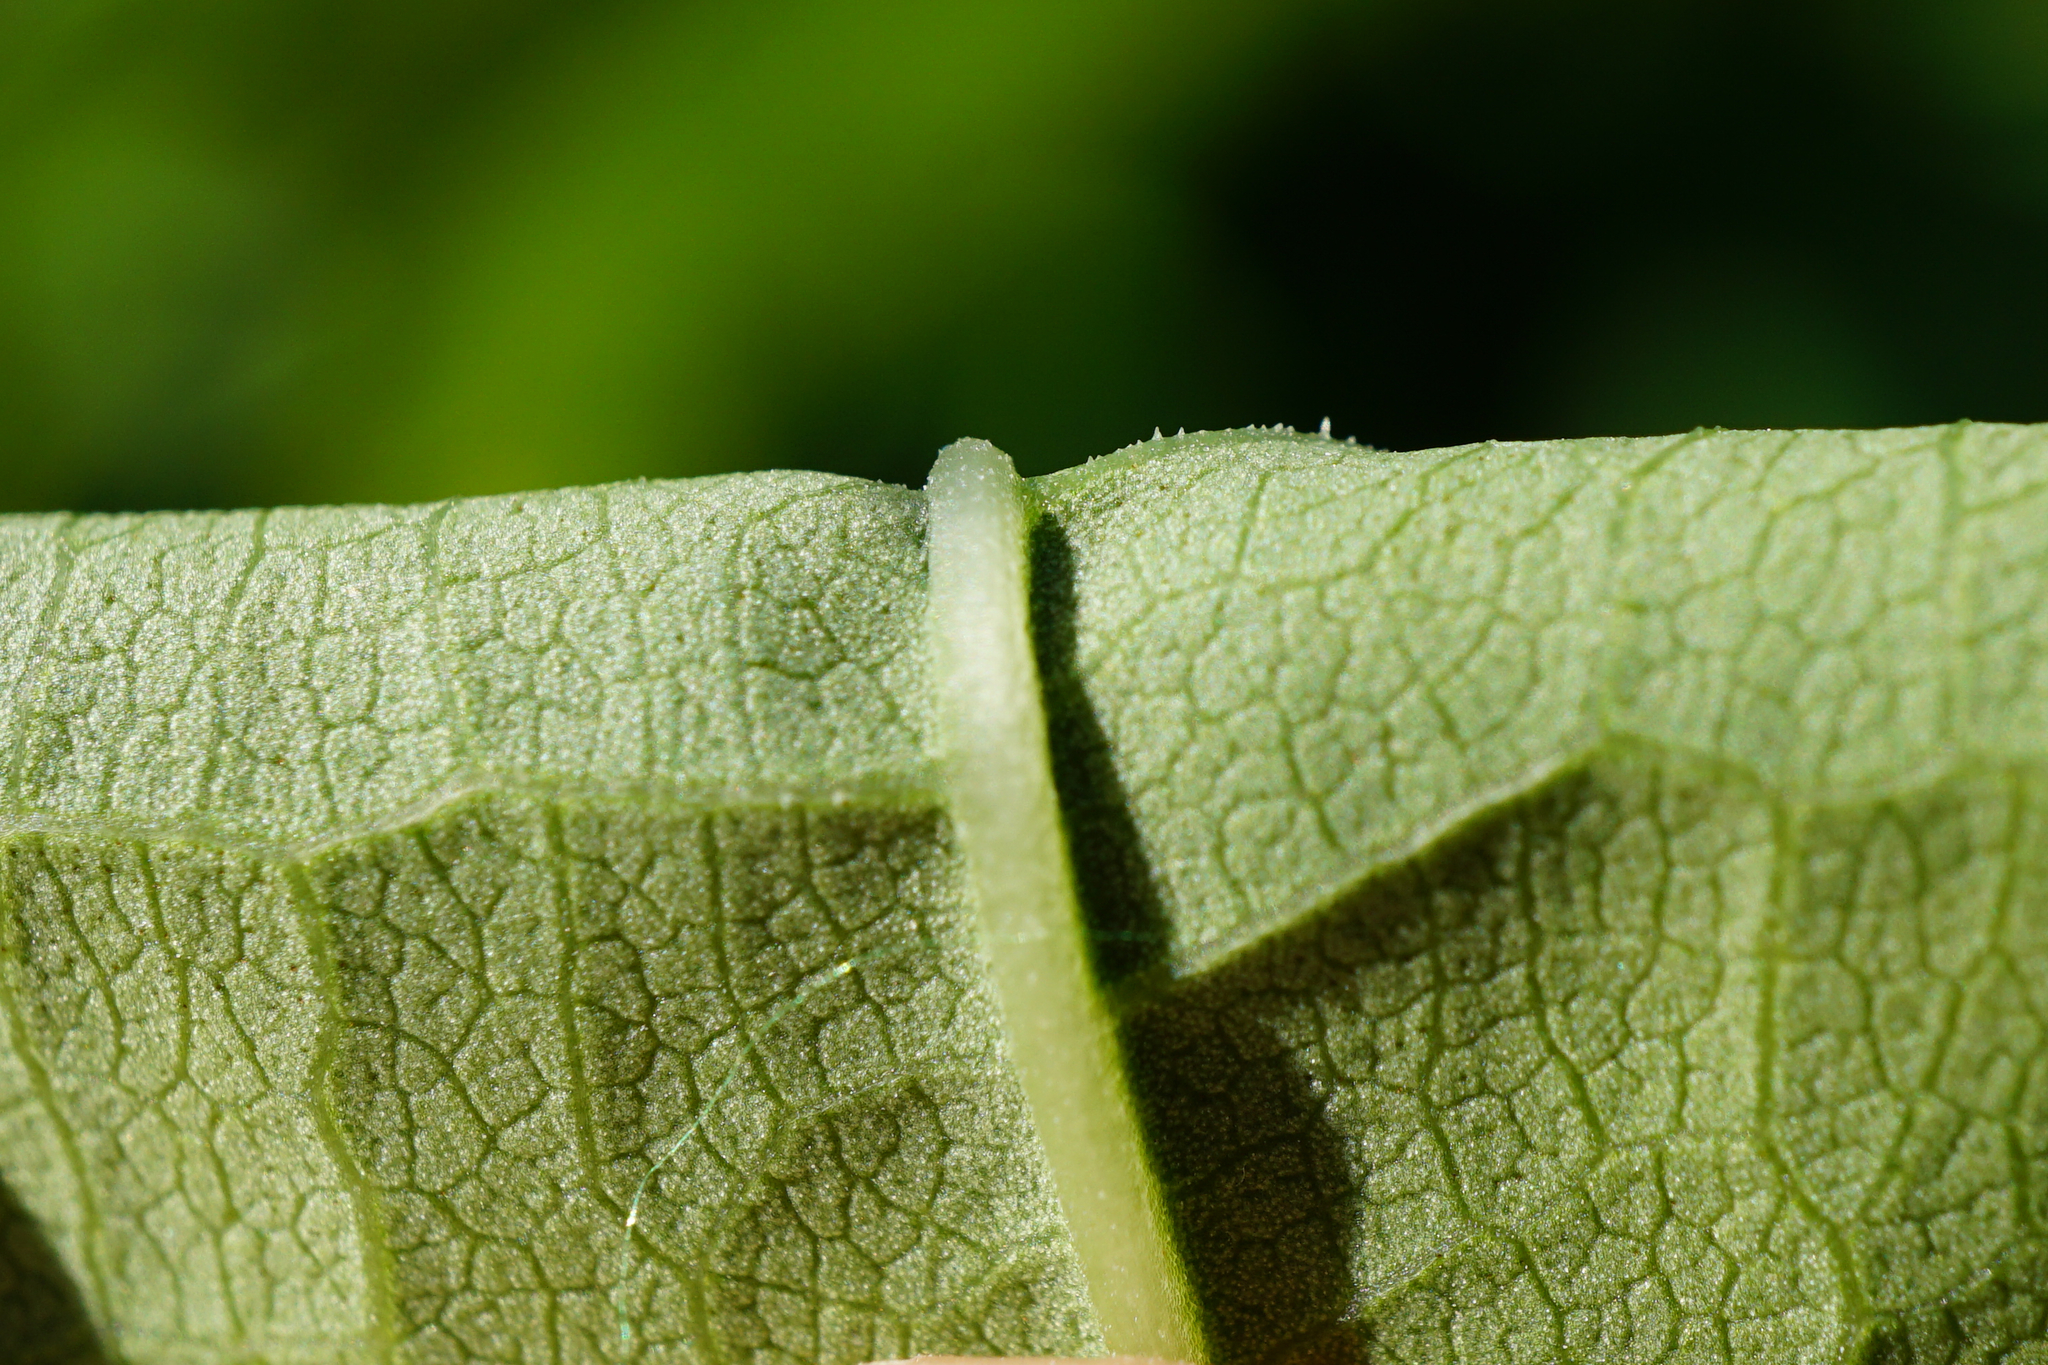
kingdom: Plantae
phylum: Tracheophyta
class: Magnoliopsida
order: Caryophyllales
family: Polygonaceae
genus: Reynoutria
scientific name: Reynoutria bohemica
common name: Bohemian knotweed
